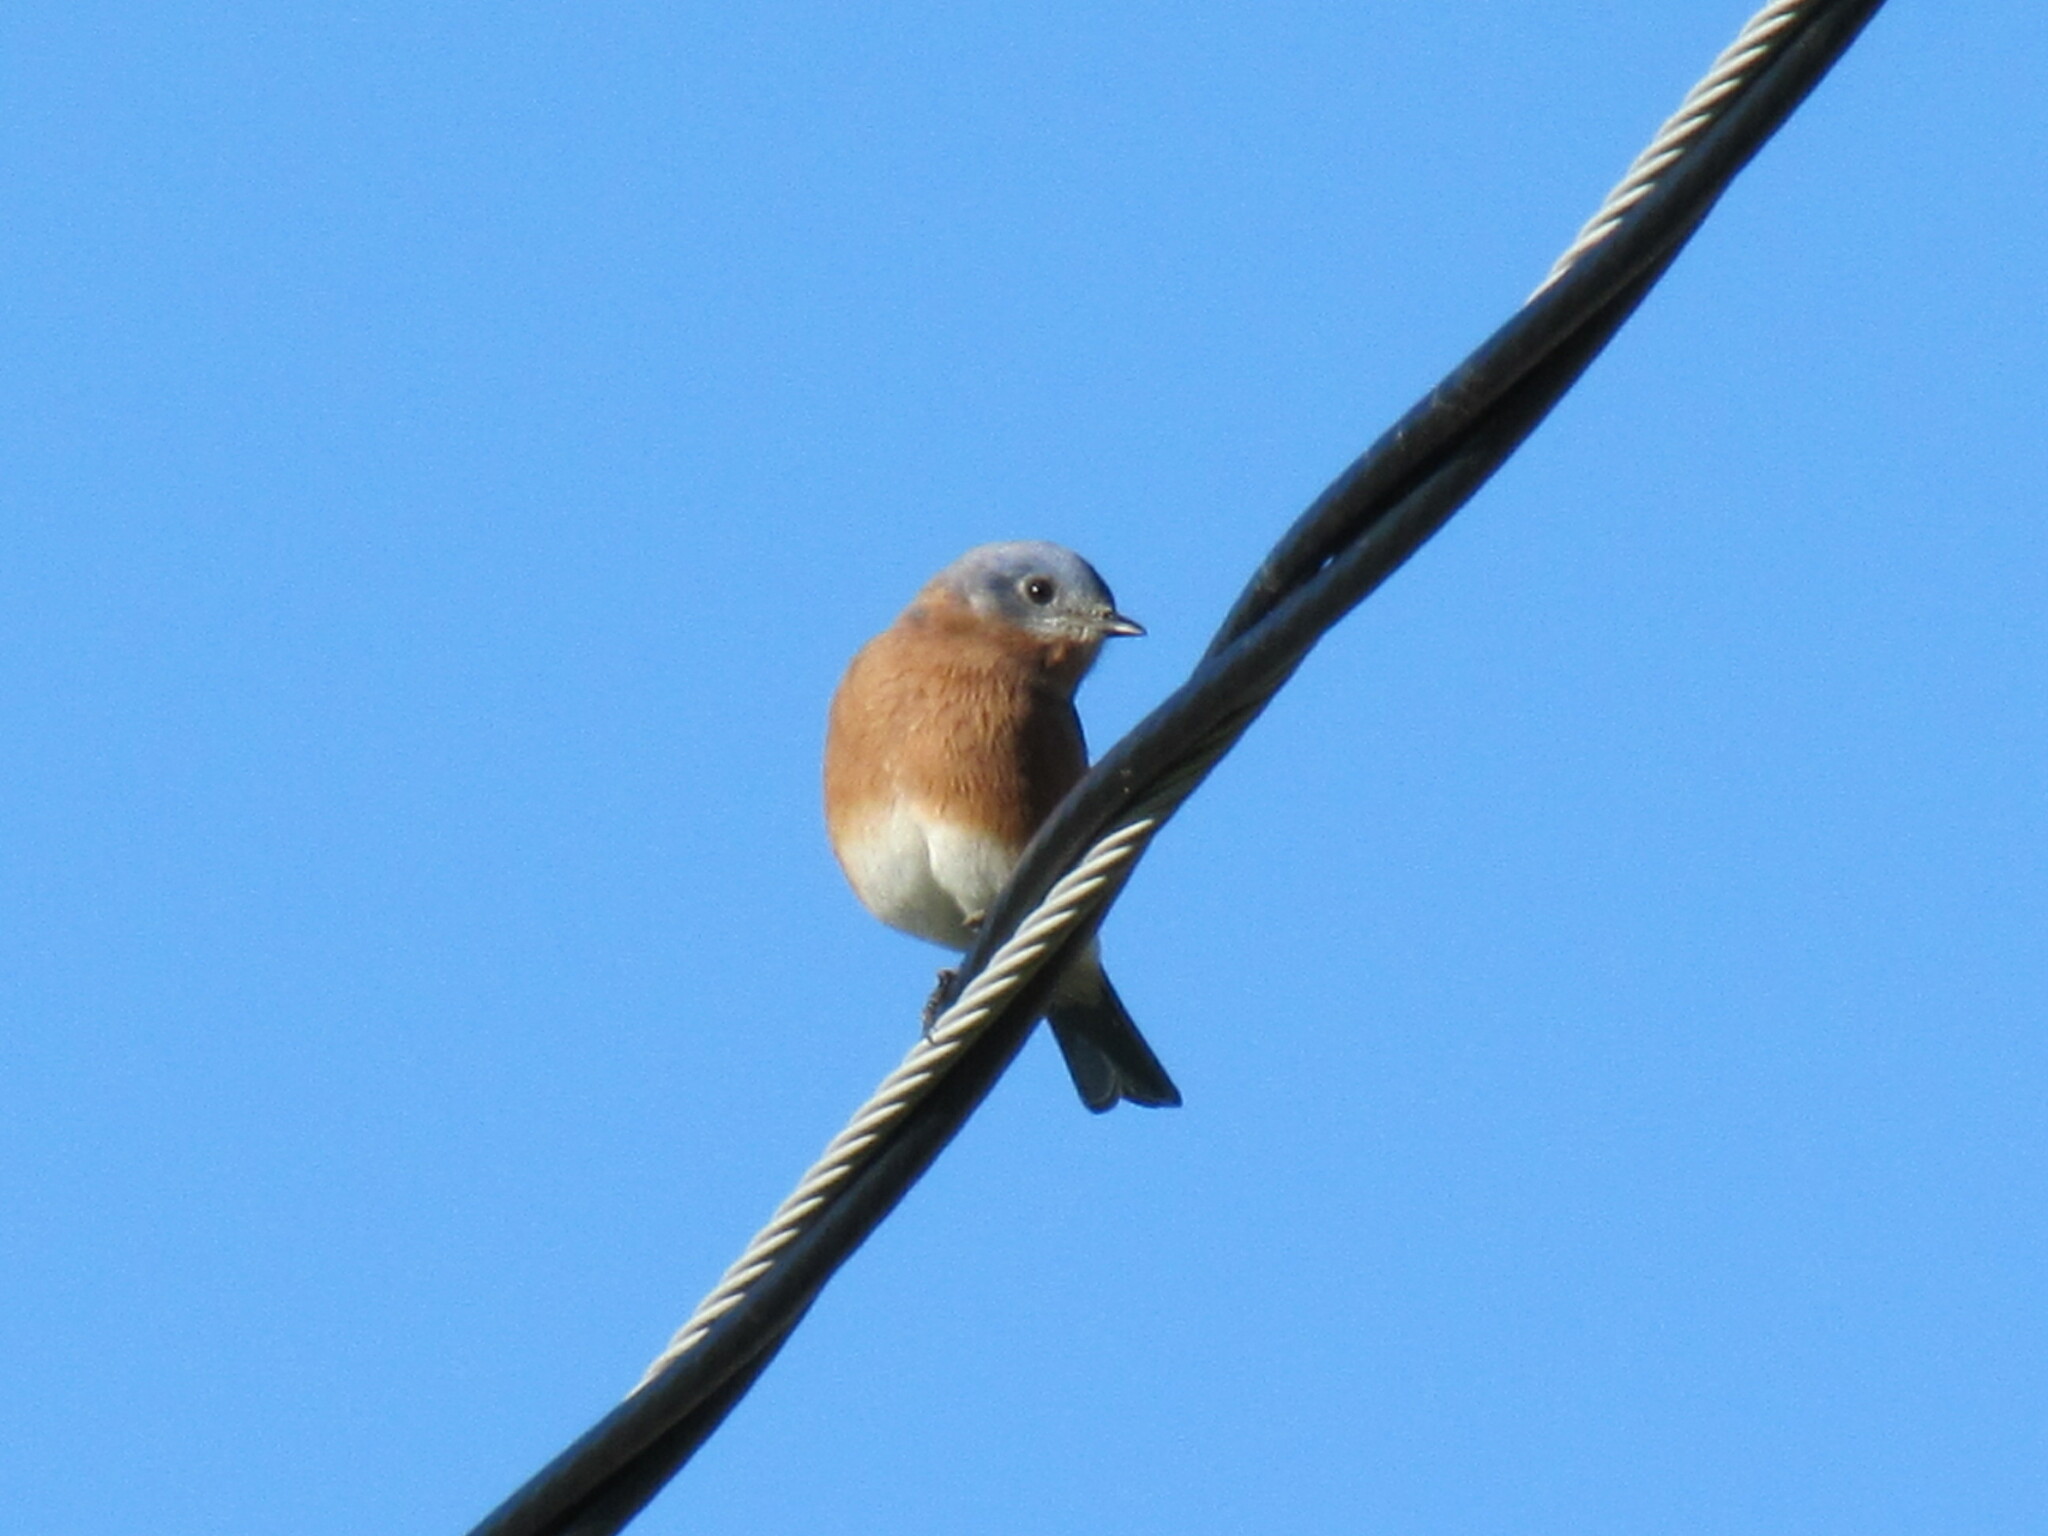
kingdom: Animalia
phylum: Chordata
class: Aves
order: Passeriformes
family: Turdidae
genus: Sialia
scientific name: Sialia sialis
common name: Eastern bluebird
